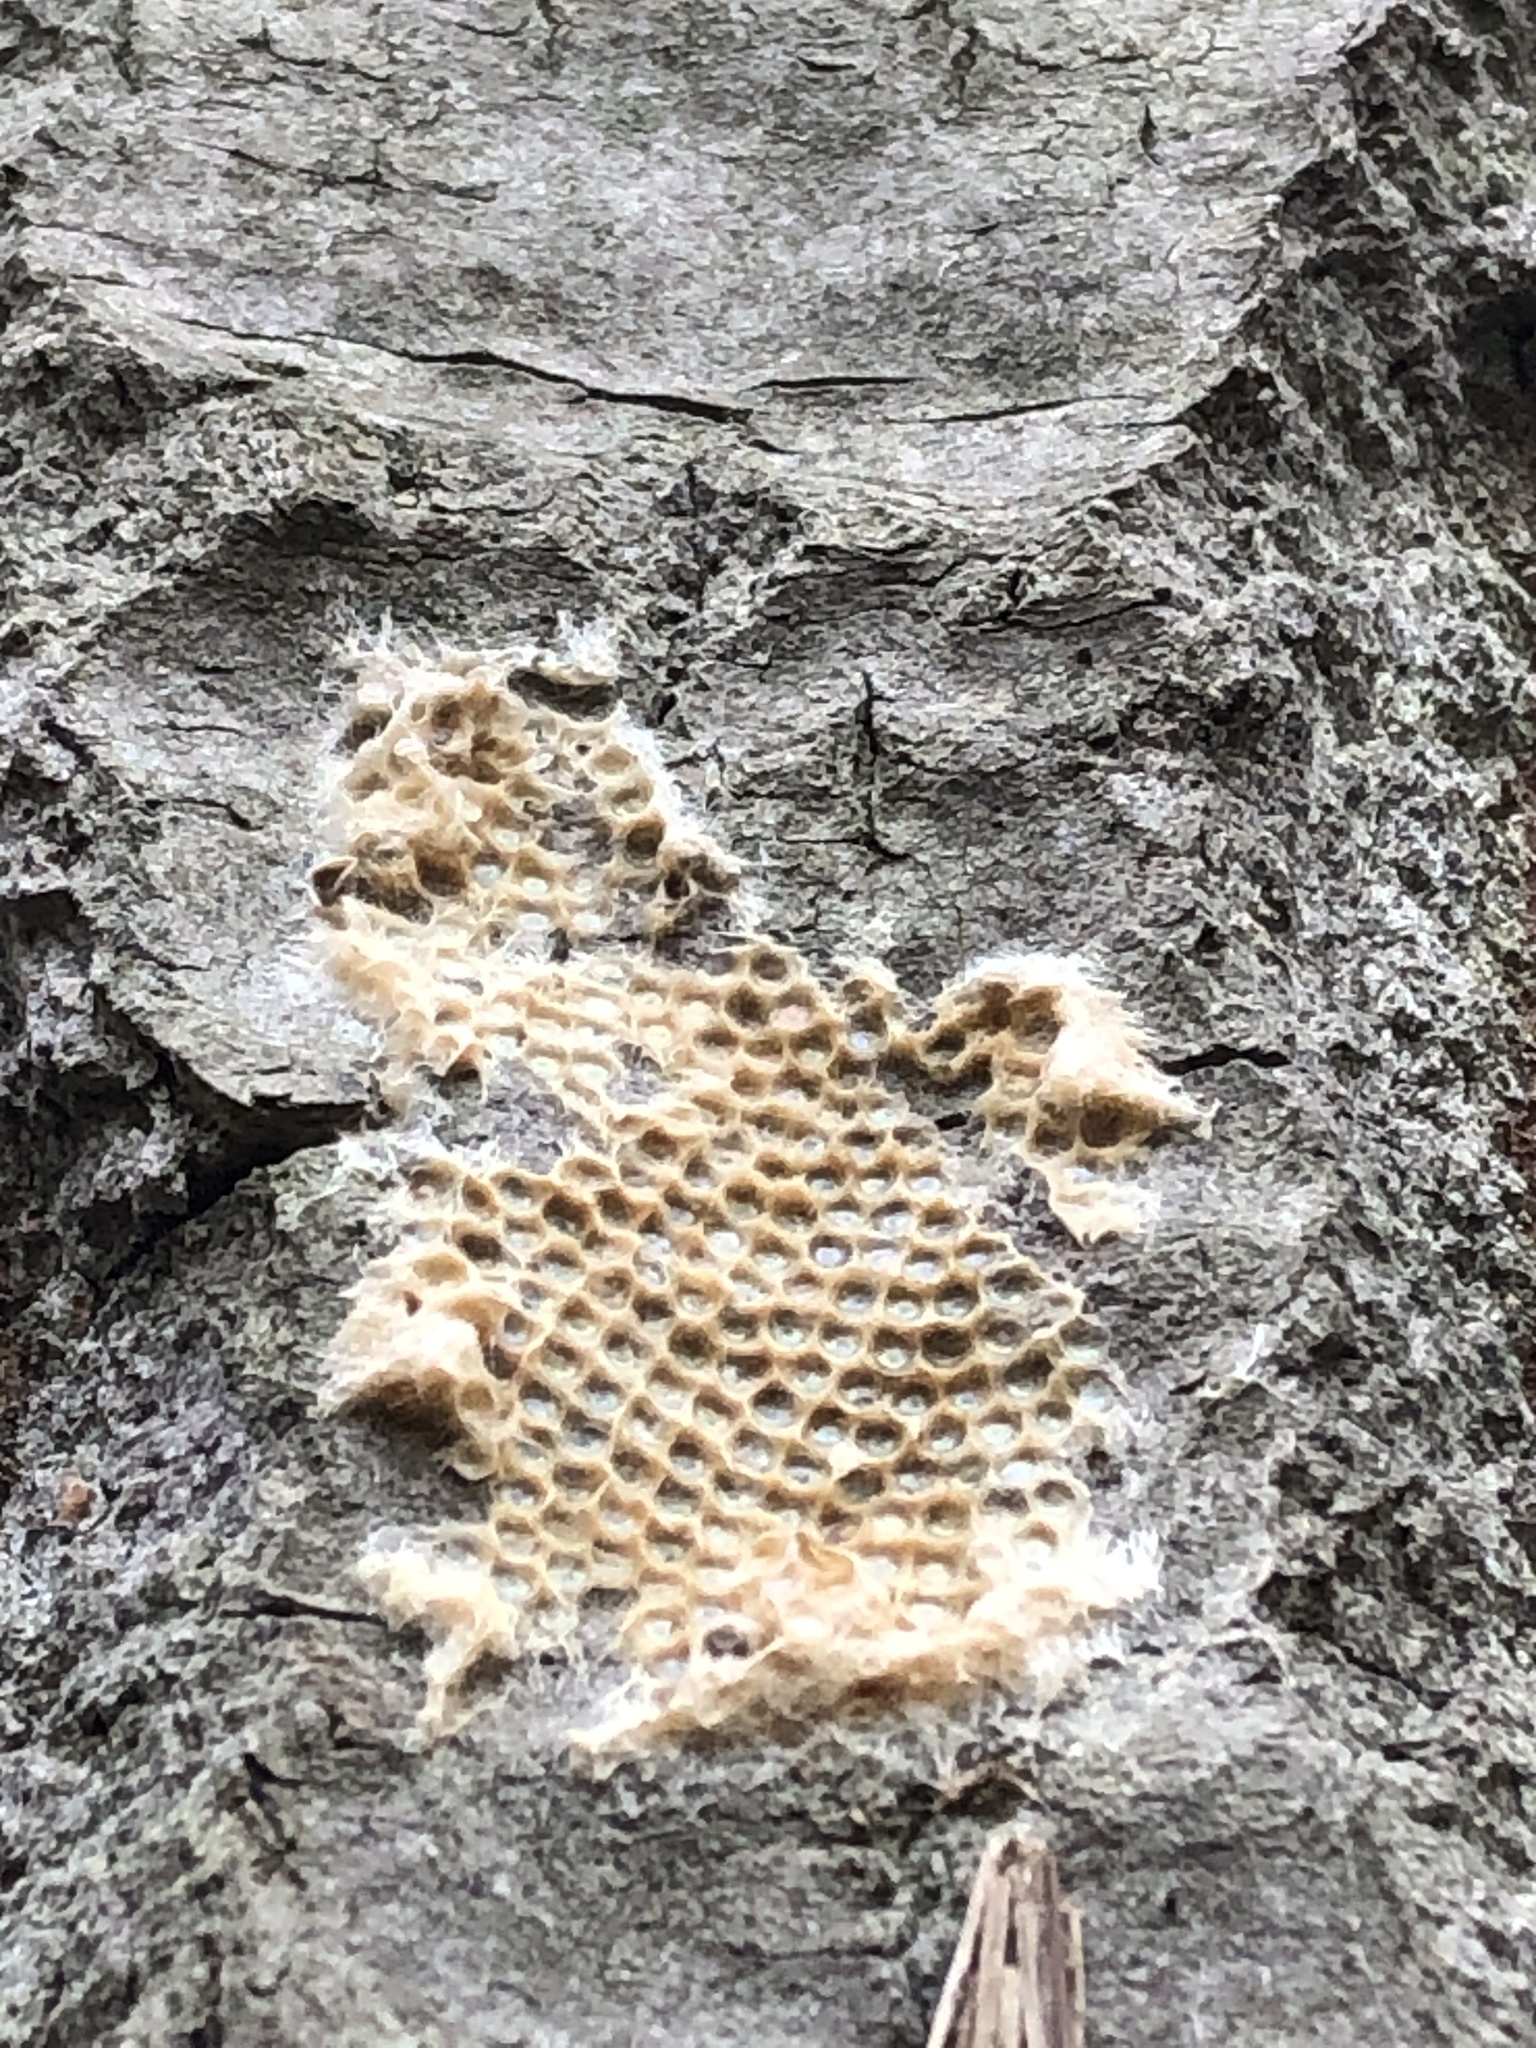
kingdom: Animalia
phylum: Arthropoda
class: Insecta
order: Lepidoptera
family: Erebidae
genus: Lymantria
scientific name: Lymantria dispar
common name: Gypsy moth
